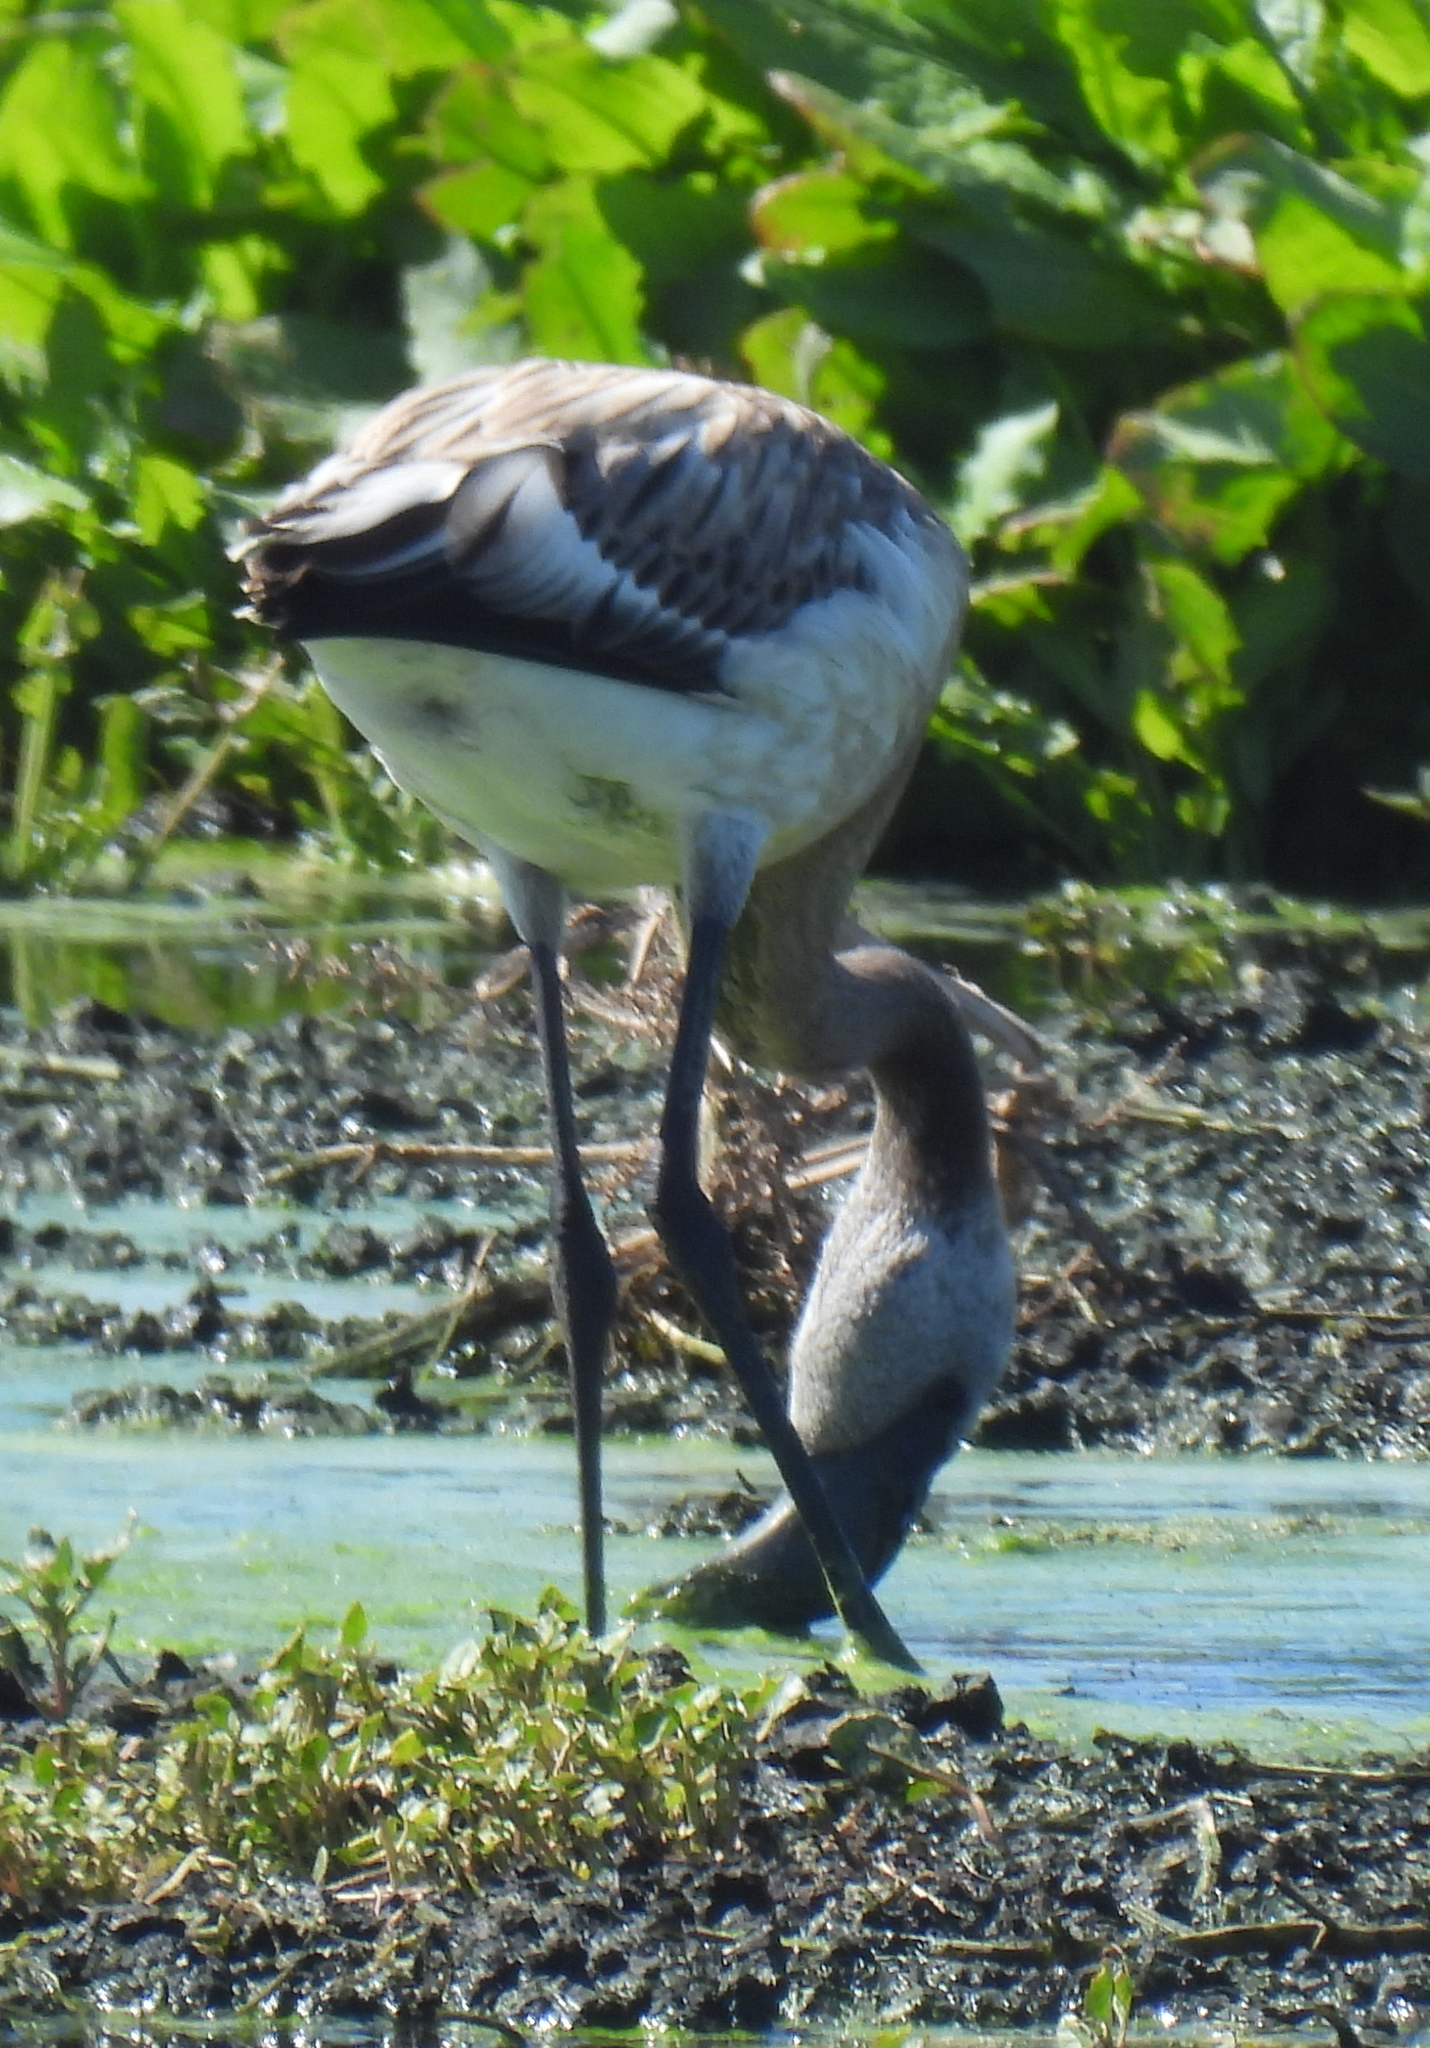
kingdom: Animalia
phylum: Chordata
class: Aves
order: Phoenicopteriformes
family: Phoenicopteridae
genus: Phoeniconaias
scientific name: Phoeniconaias minor
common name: Lesser flamingo
